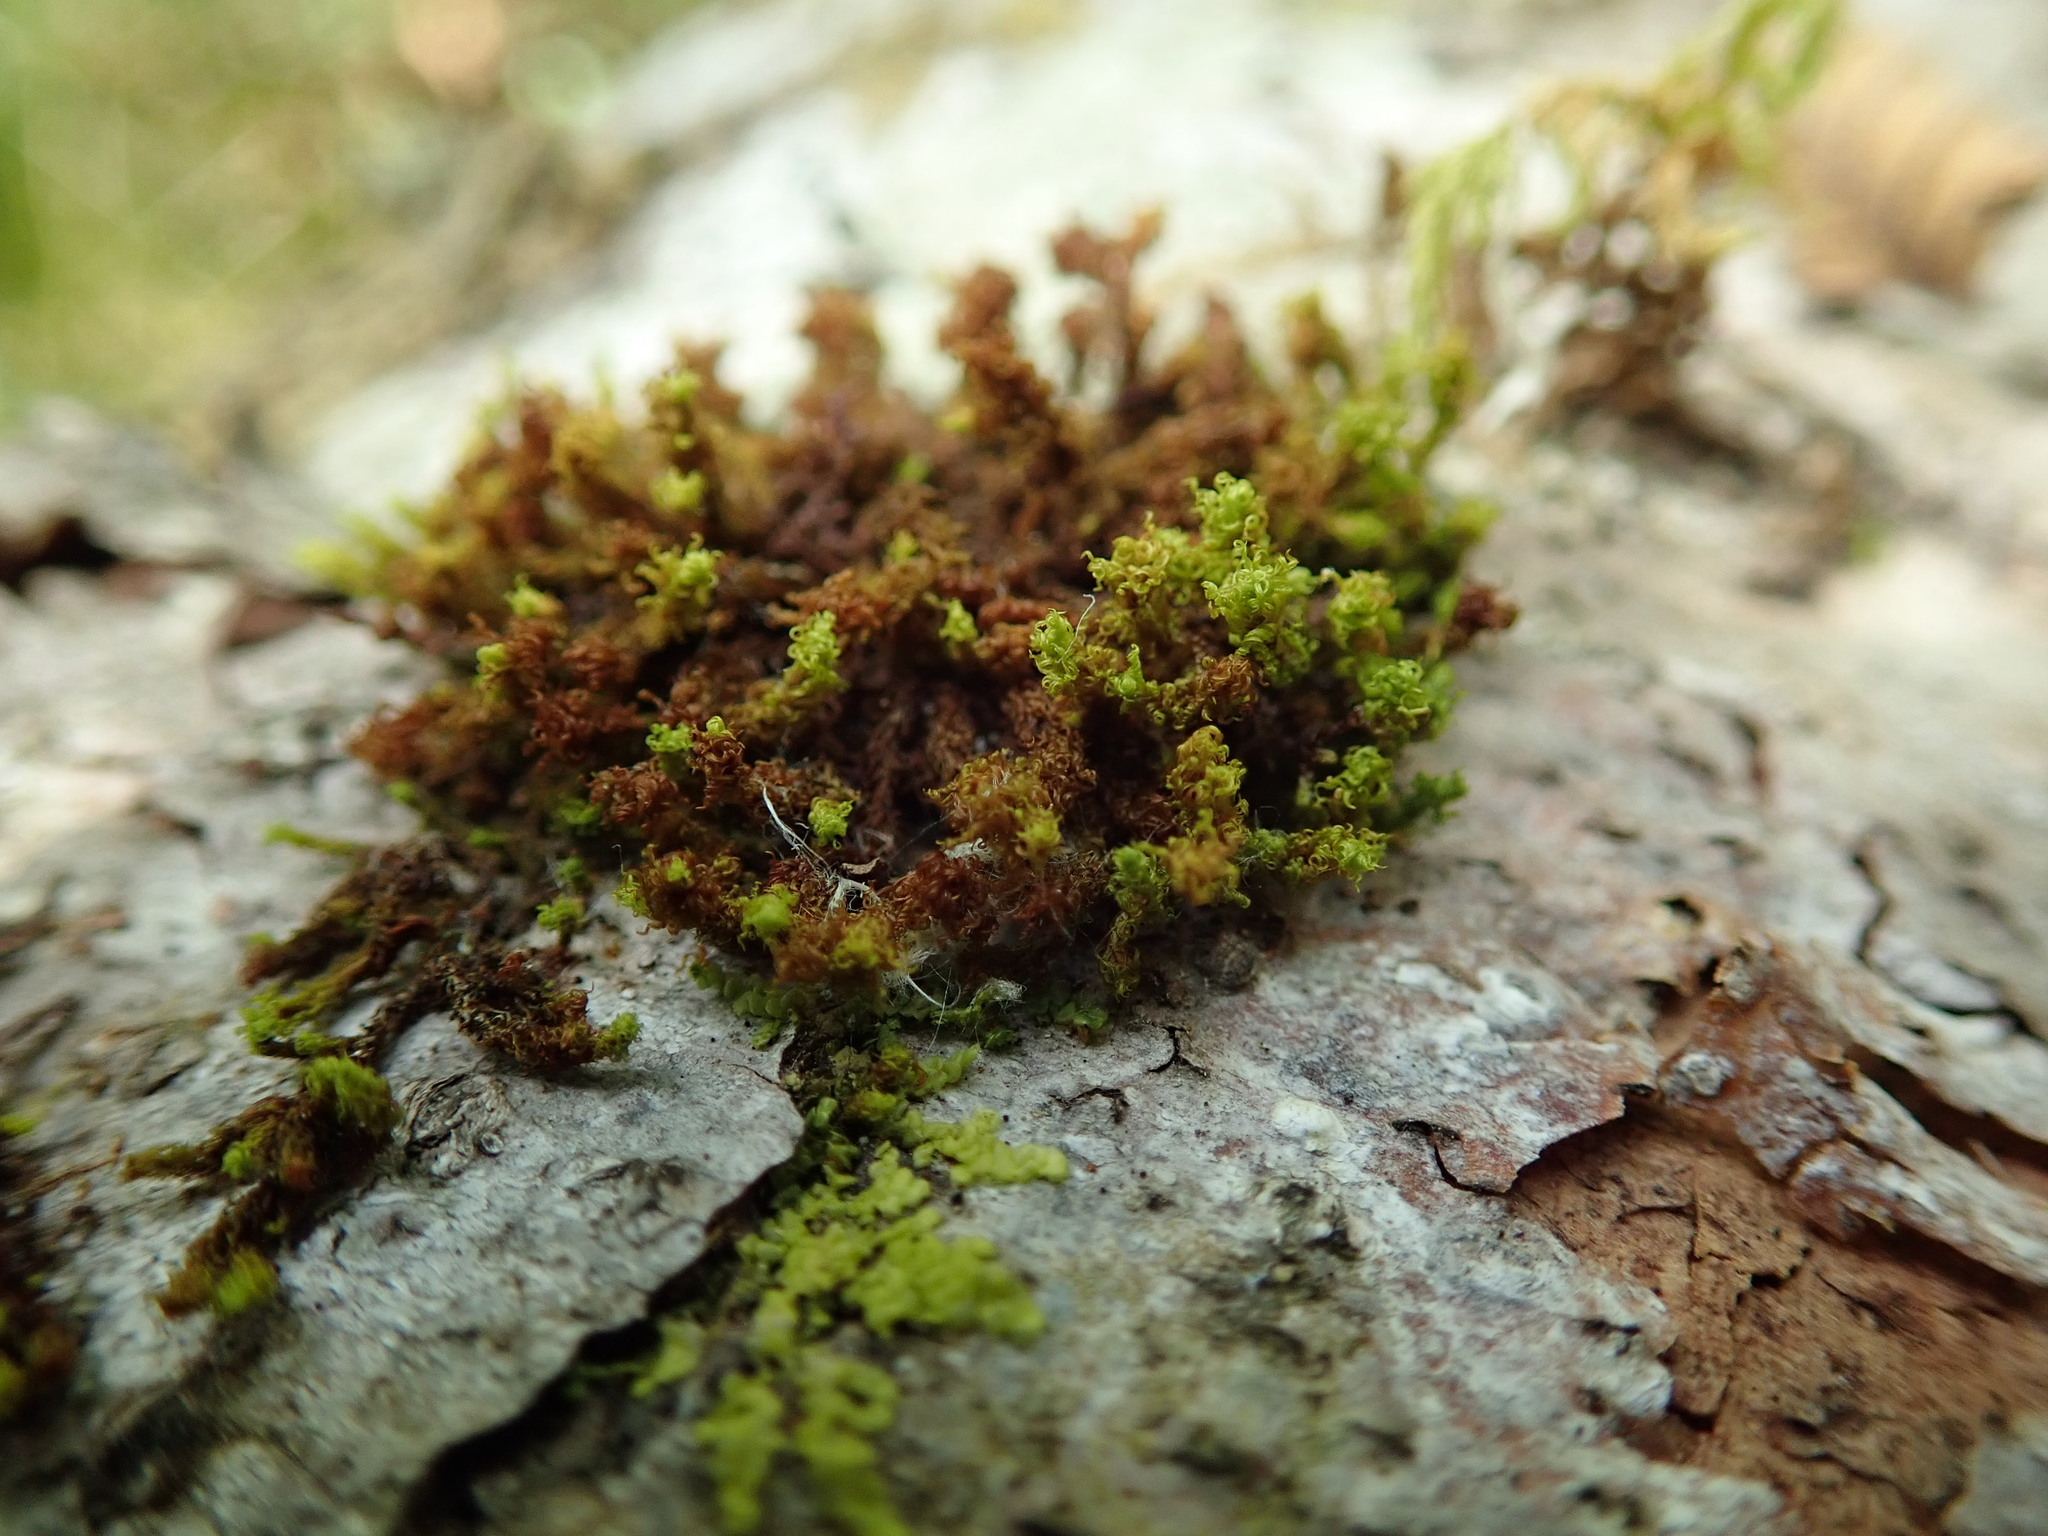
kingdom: Plantae
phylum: Bryophyta
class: Bryopsida
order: Orthotrichales
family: Orthotrichaceae
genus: Ulota
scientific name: Ulota obtusiuscula
